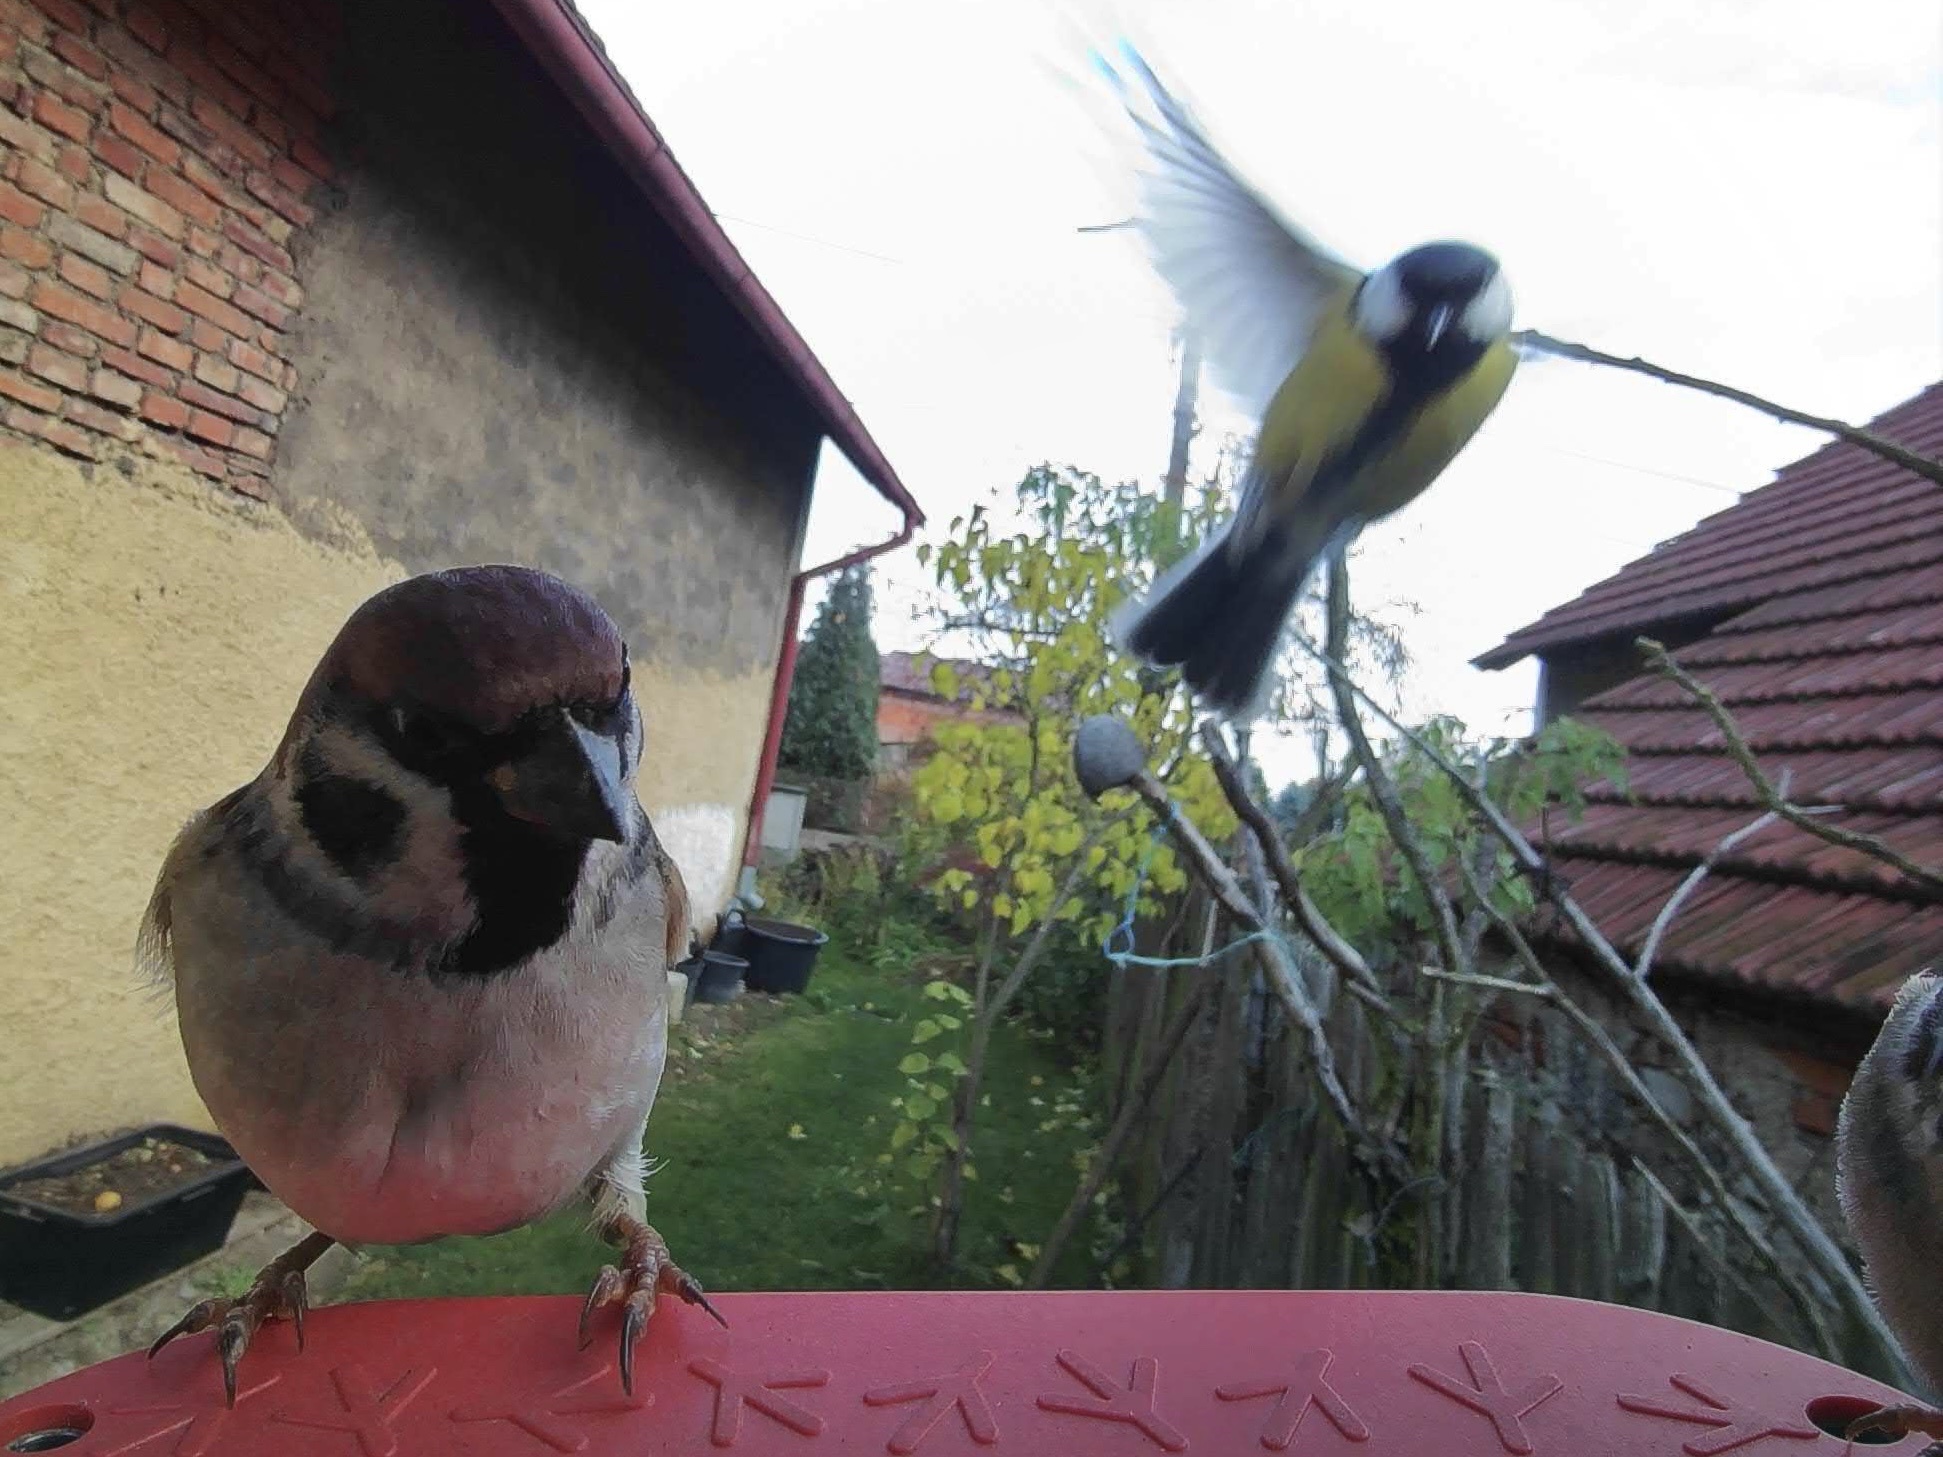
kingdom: Animalia
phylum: Chordata
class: Aves
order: Passeriformes
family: Passeridae
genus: Passer
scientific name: Passer montanus
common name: Eurasian tree sparrow
